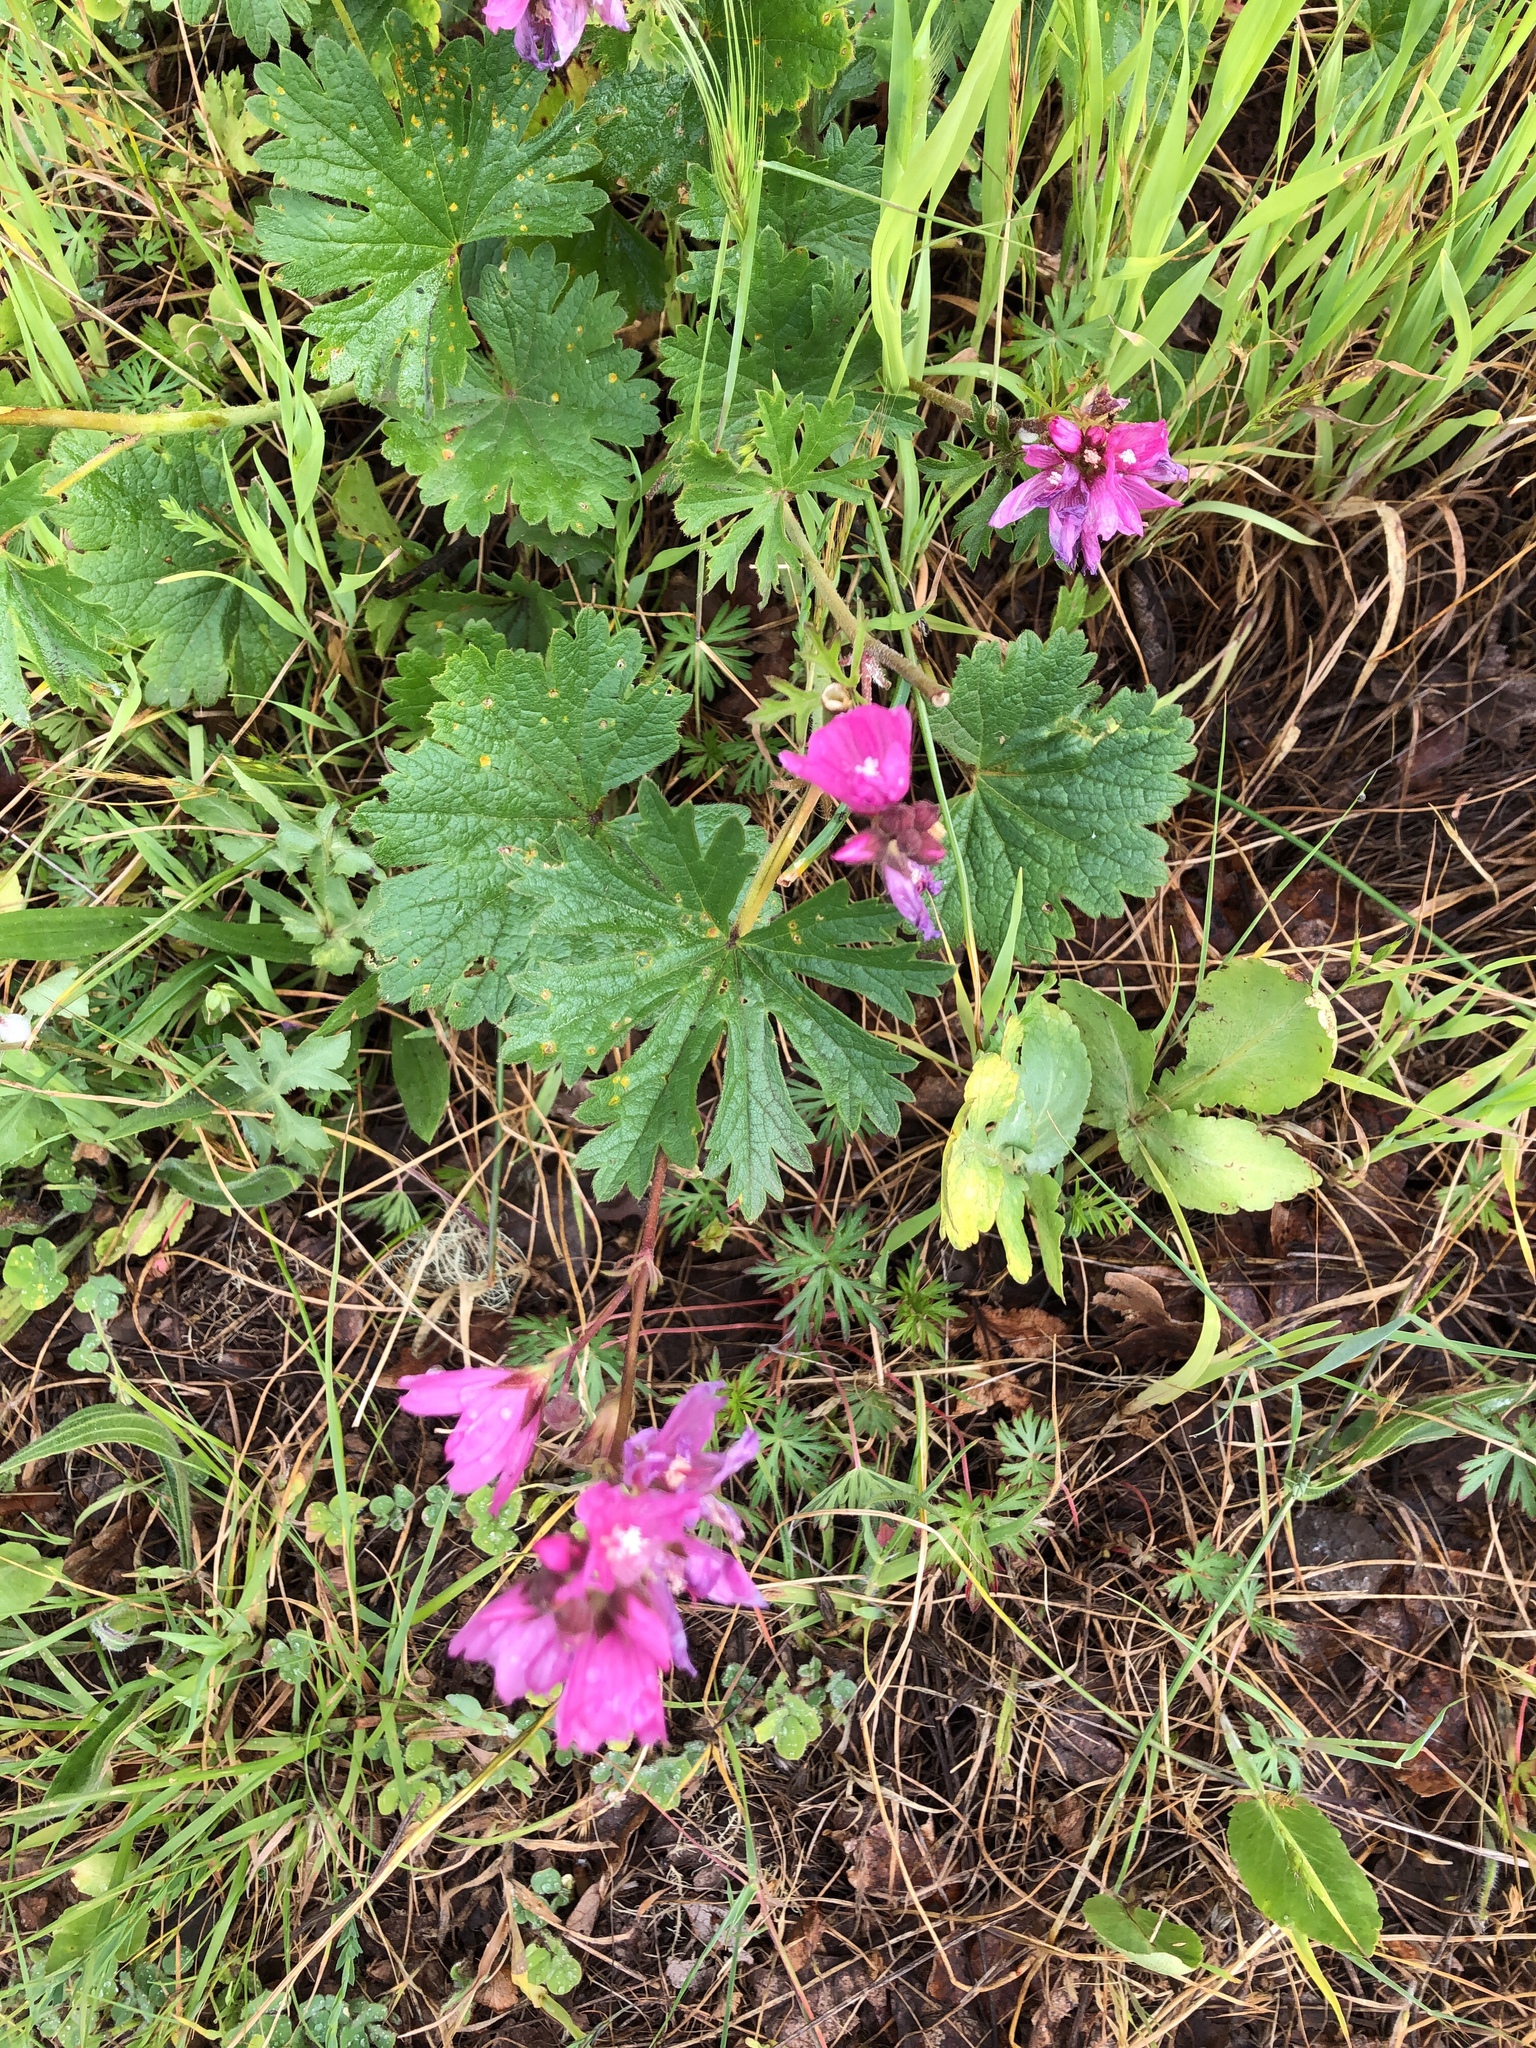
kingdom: Plantae
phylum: Tracheophyta
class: Magnoliopsida
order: Malvales
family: Malvaceae
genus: Sidalcea
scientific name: Sidalcea asprella
